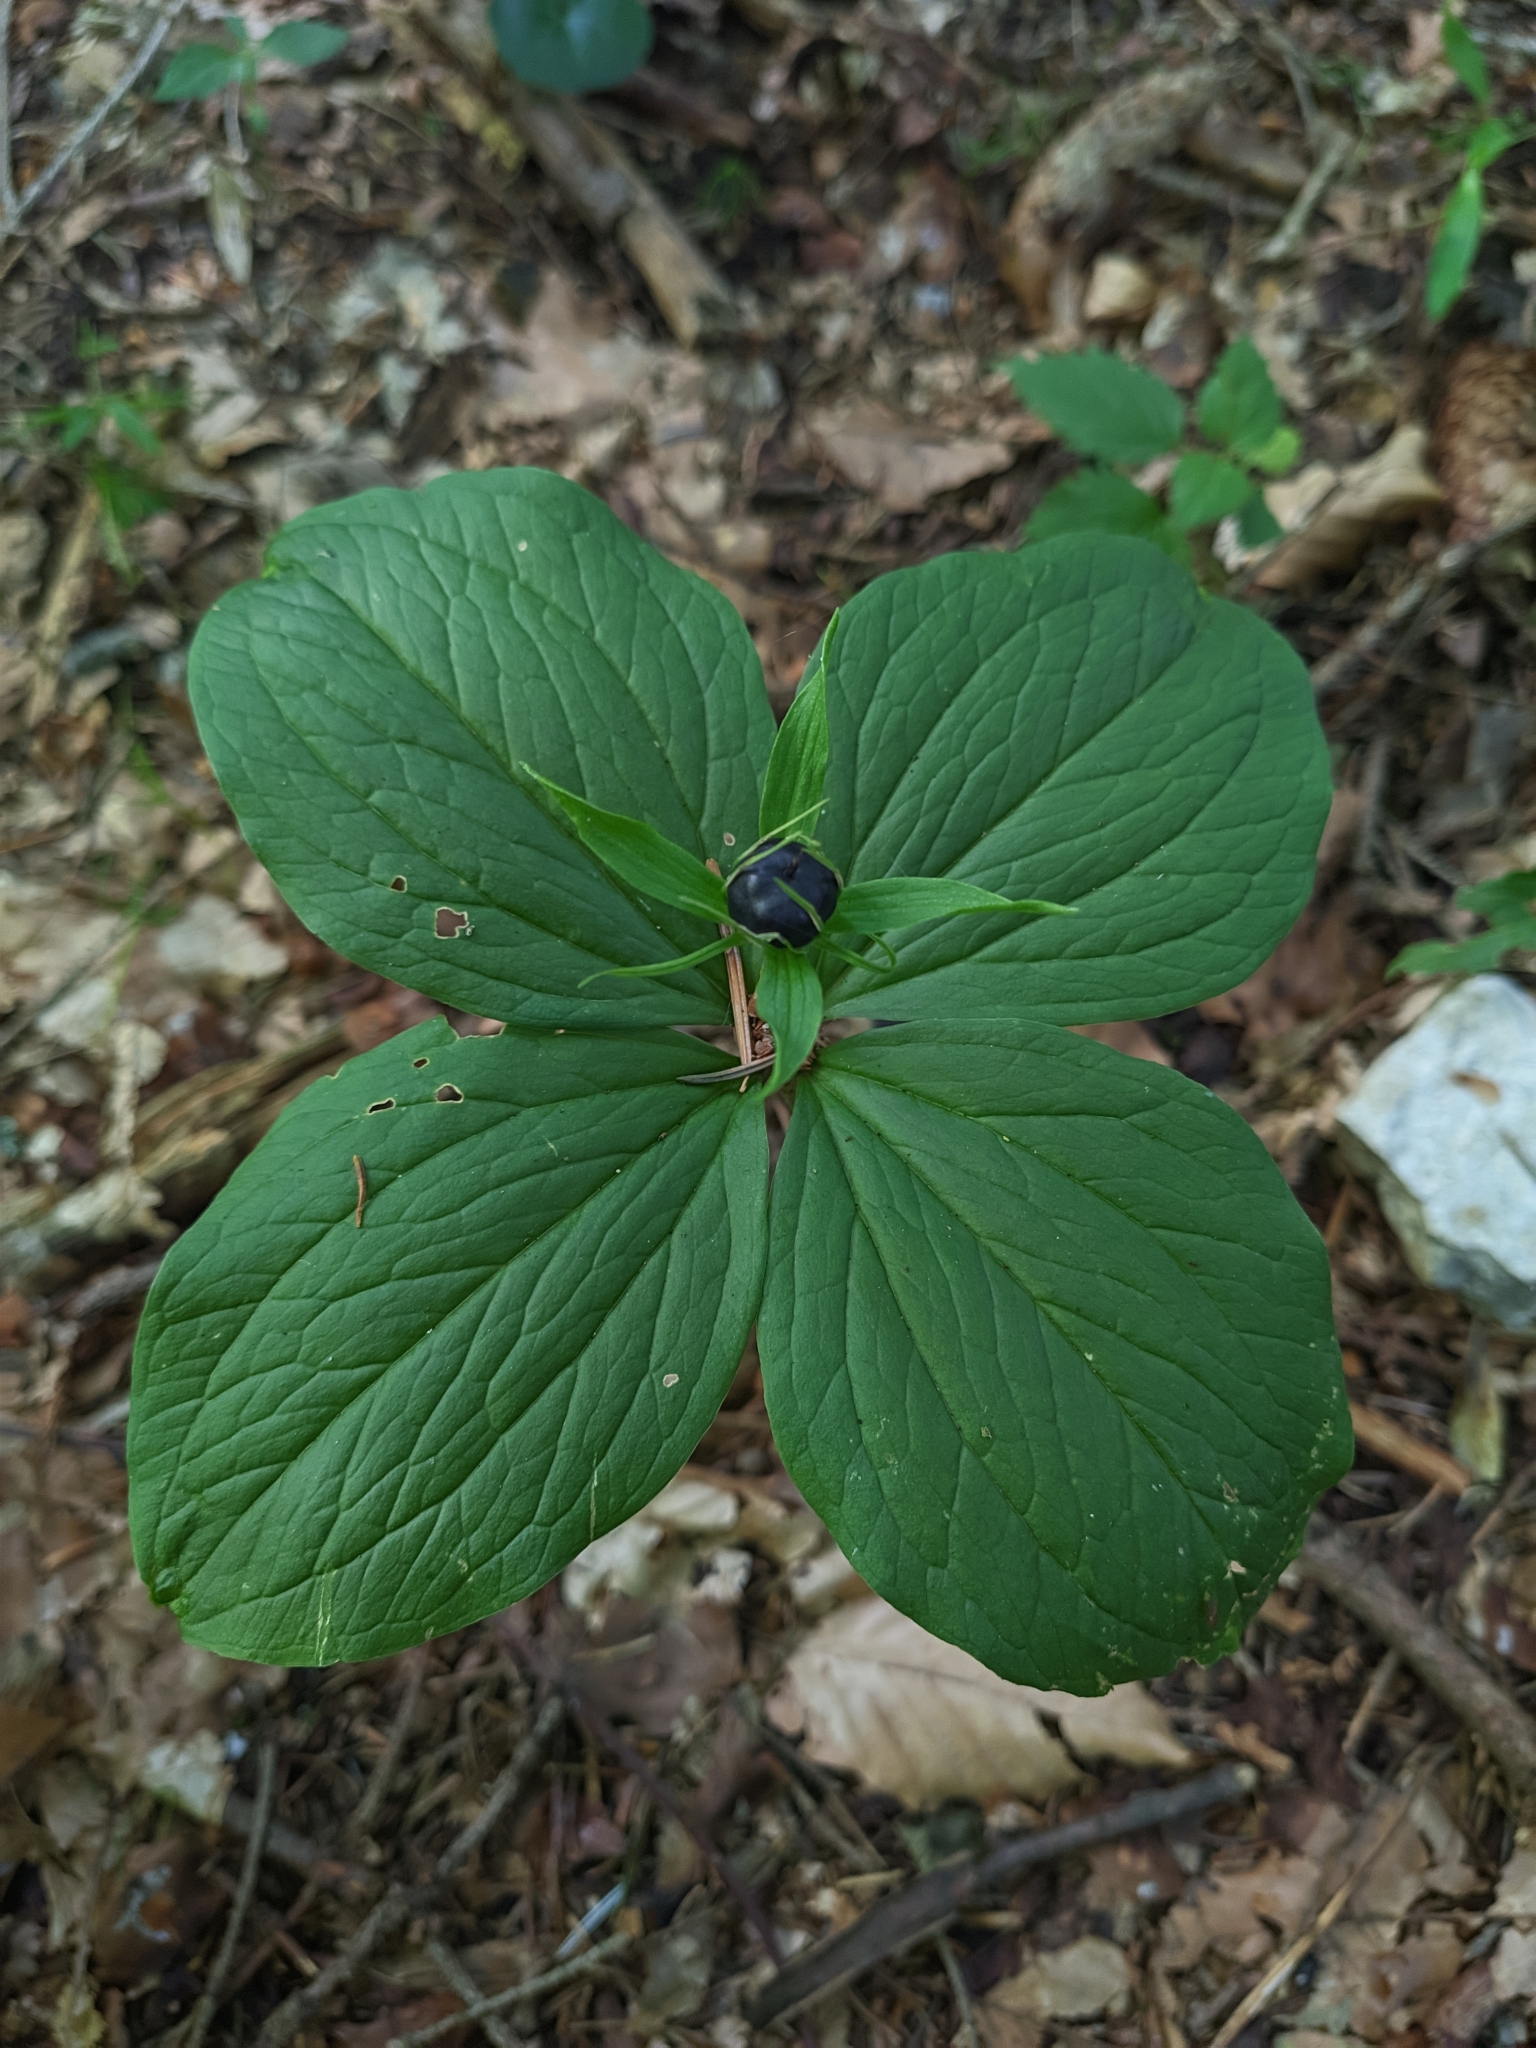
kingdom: Plantae
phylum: Tracheophyta
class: Liliopsida
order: Liliales
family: Melanthiaceae
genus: Paris
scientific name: Paris quadrifolia
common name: Herb-paris
